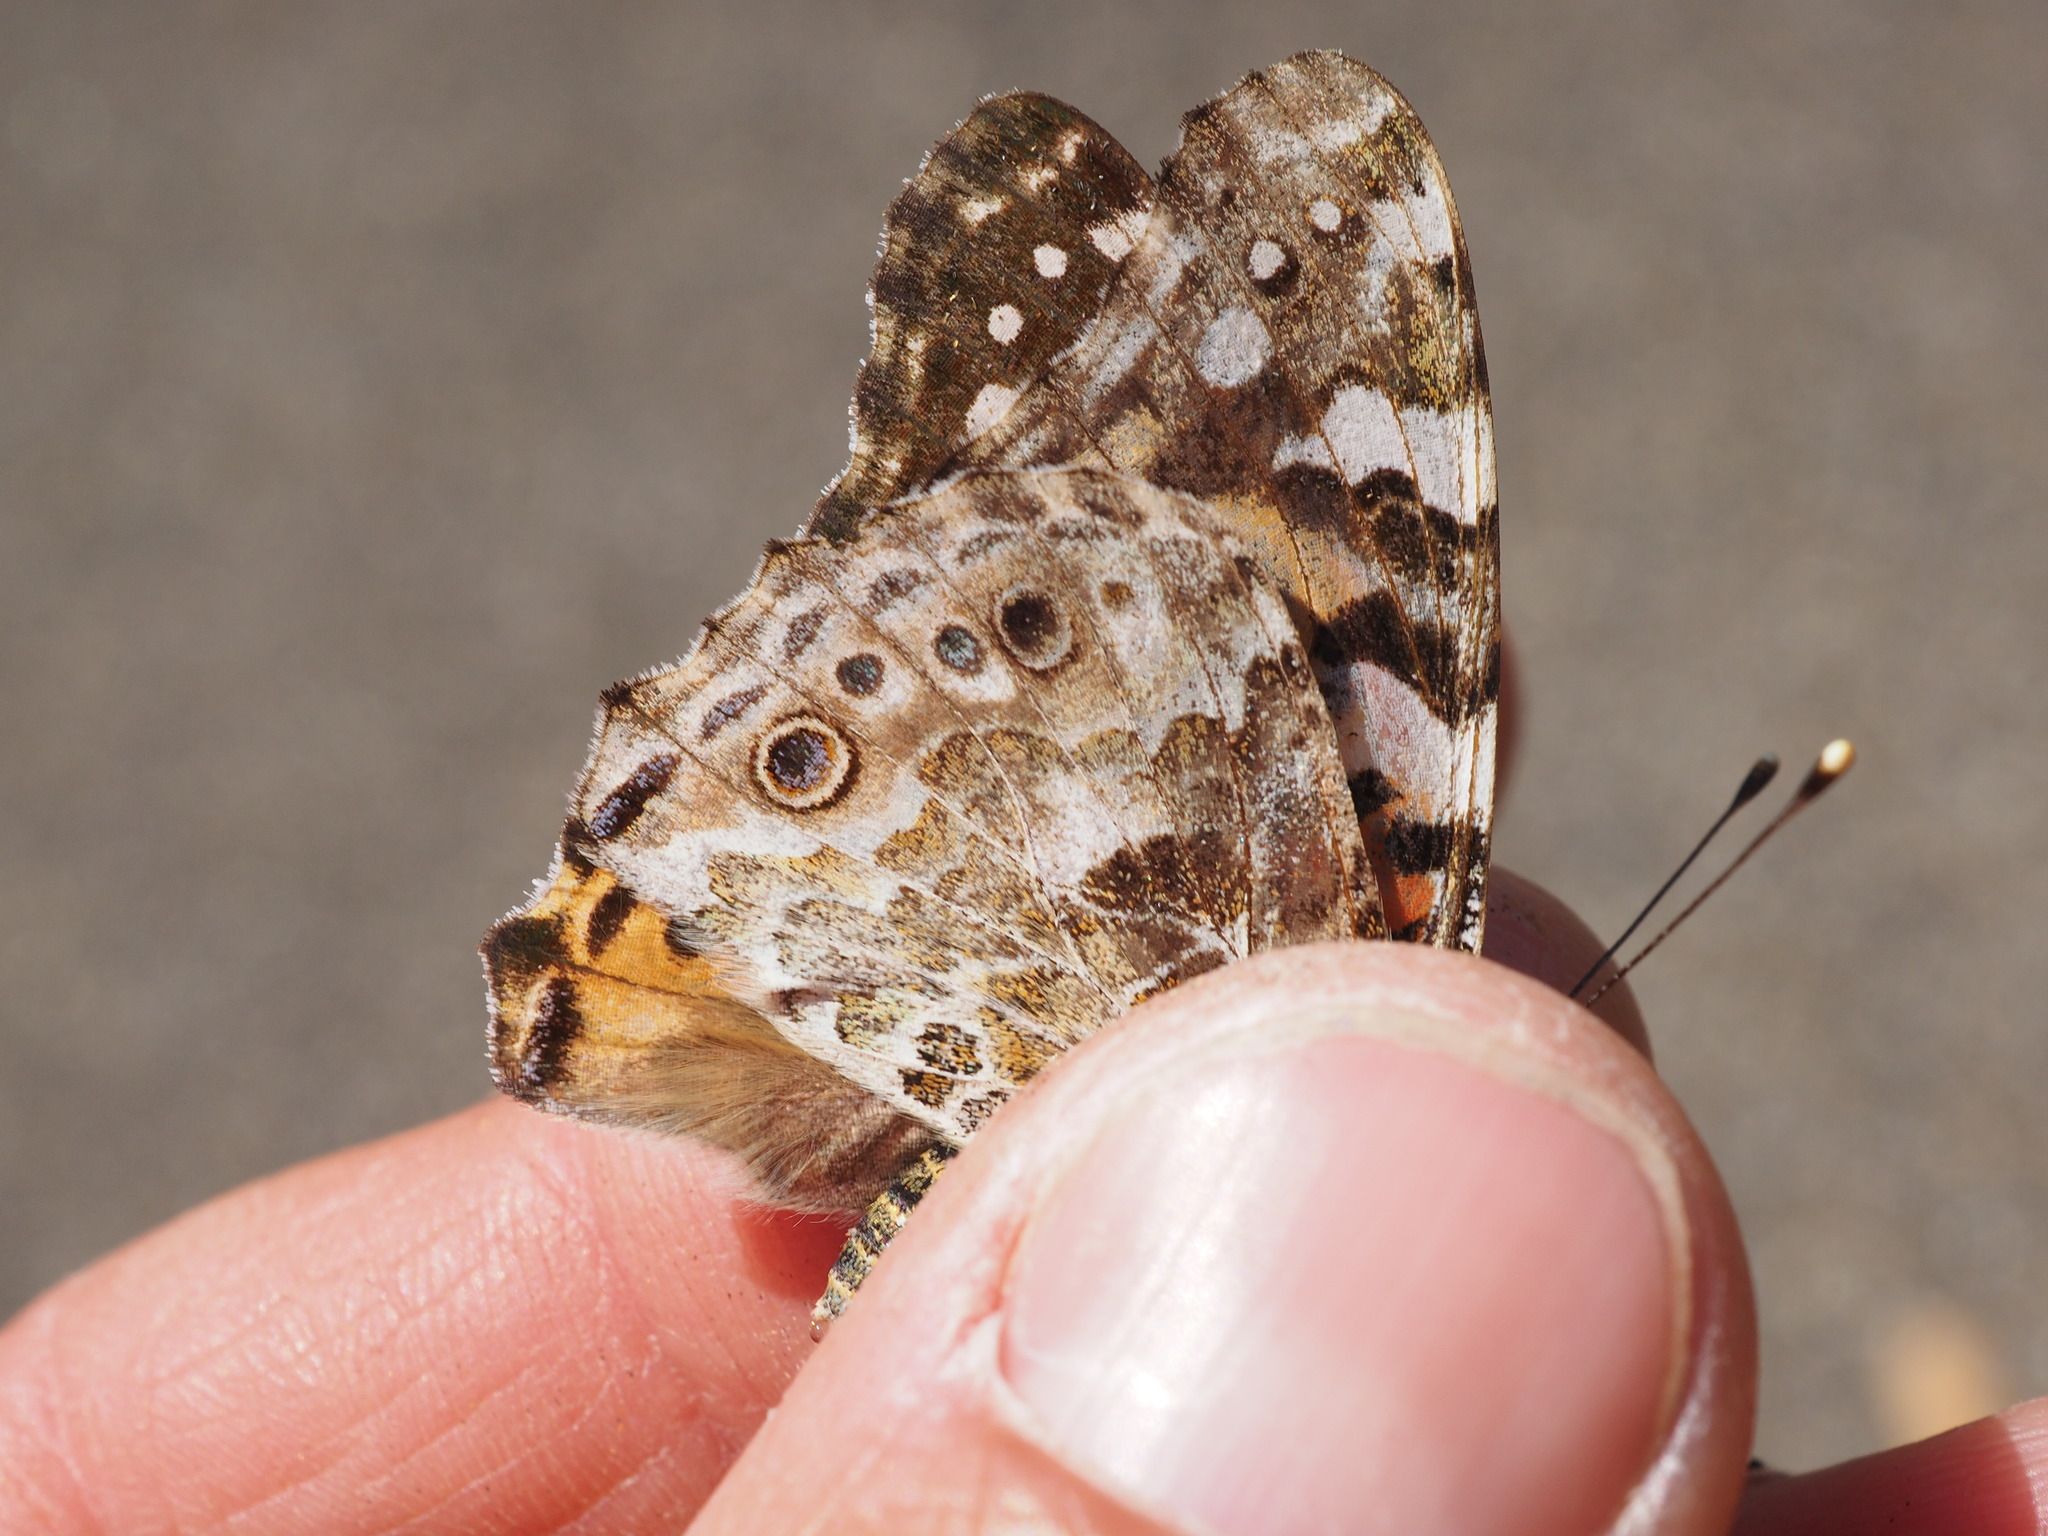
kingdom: Animalia
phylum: Arthropoda
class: Insecta
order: Lepidoptera
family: Nymphalidae
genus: Vanessa
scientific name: Vanessa cardui
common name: Painted lady
